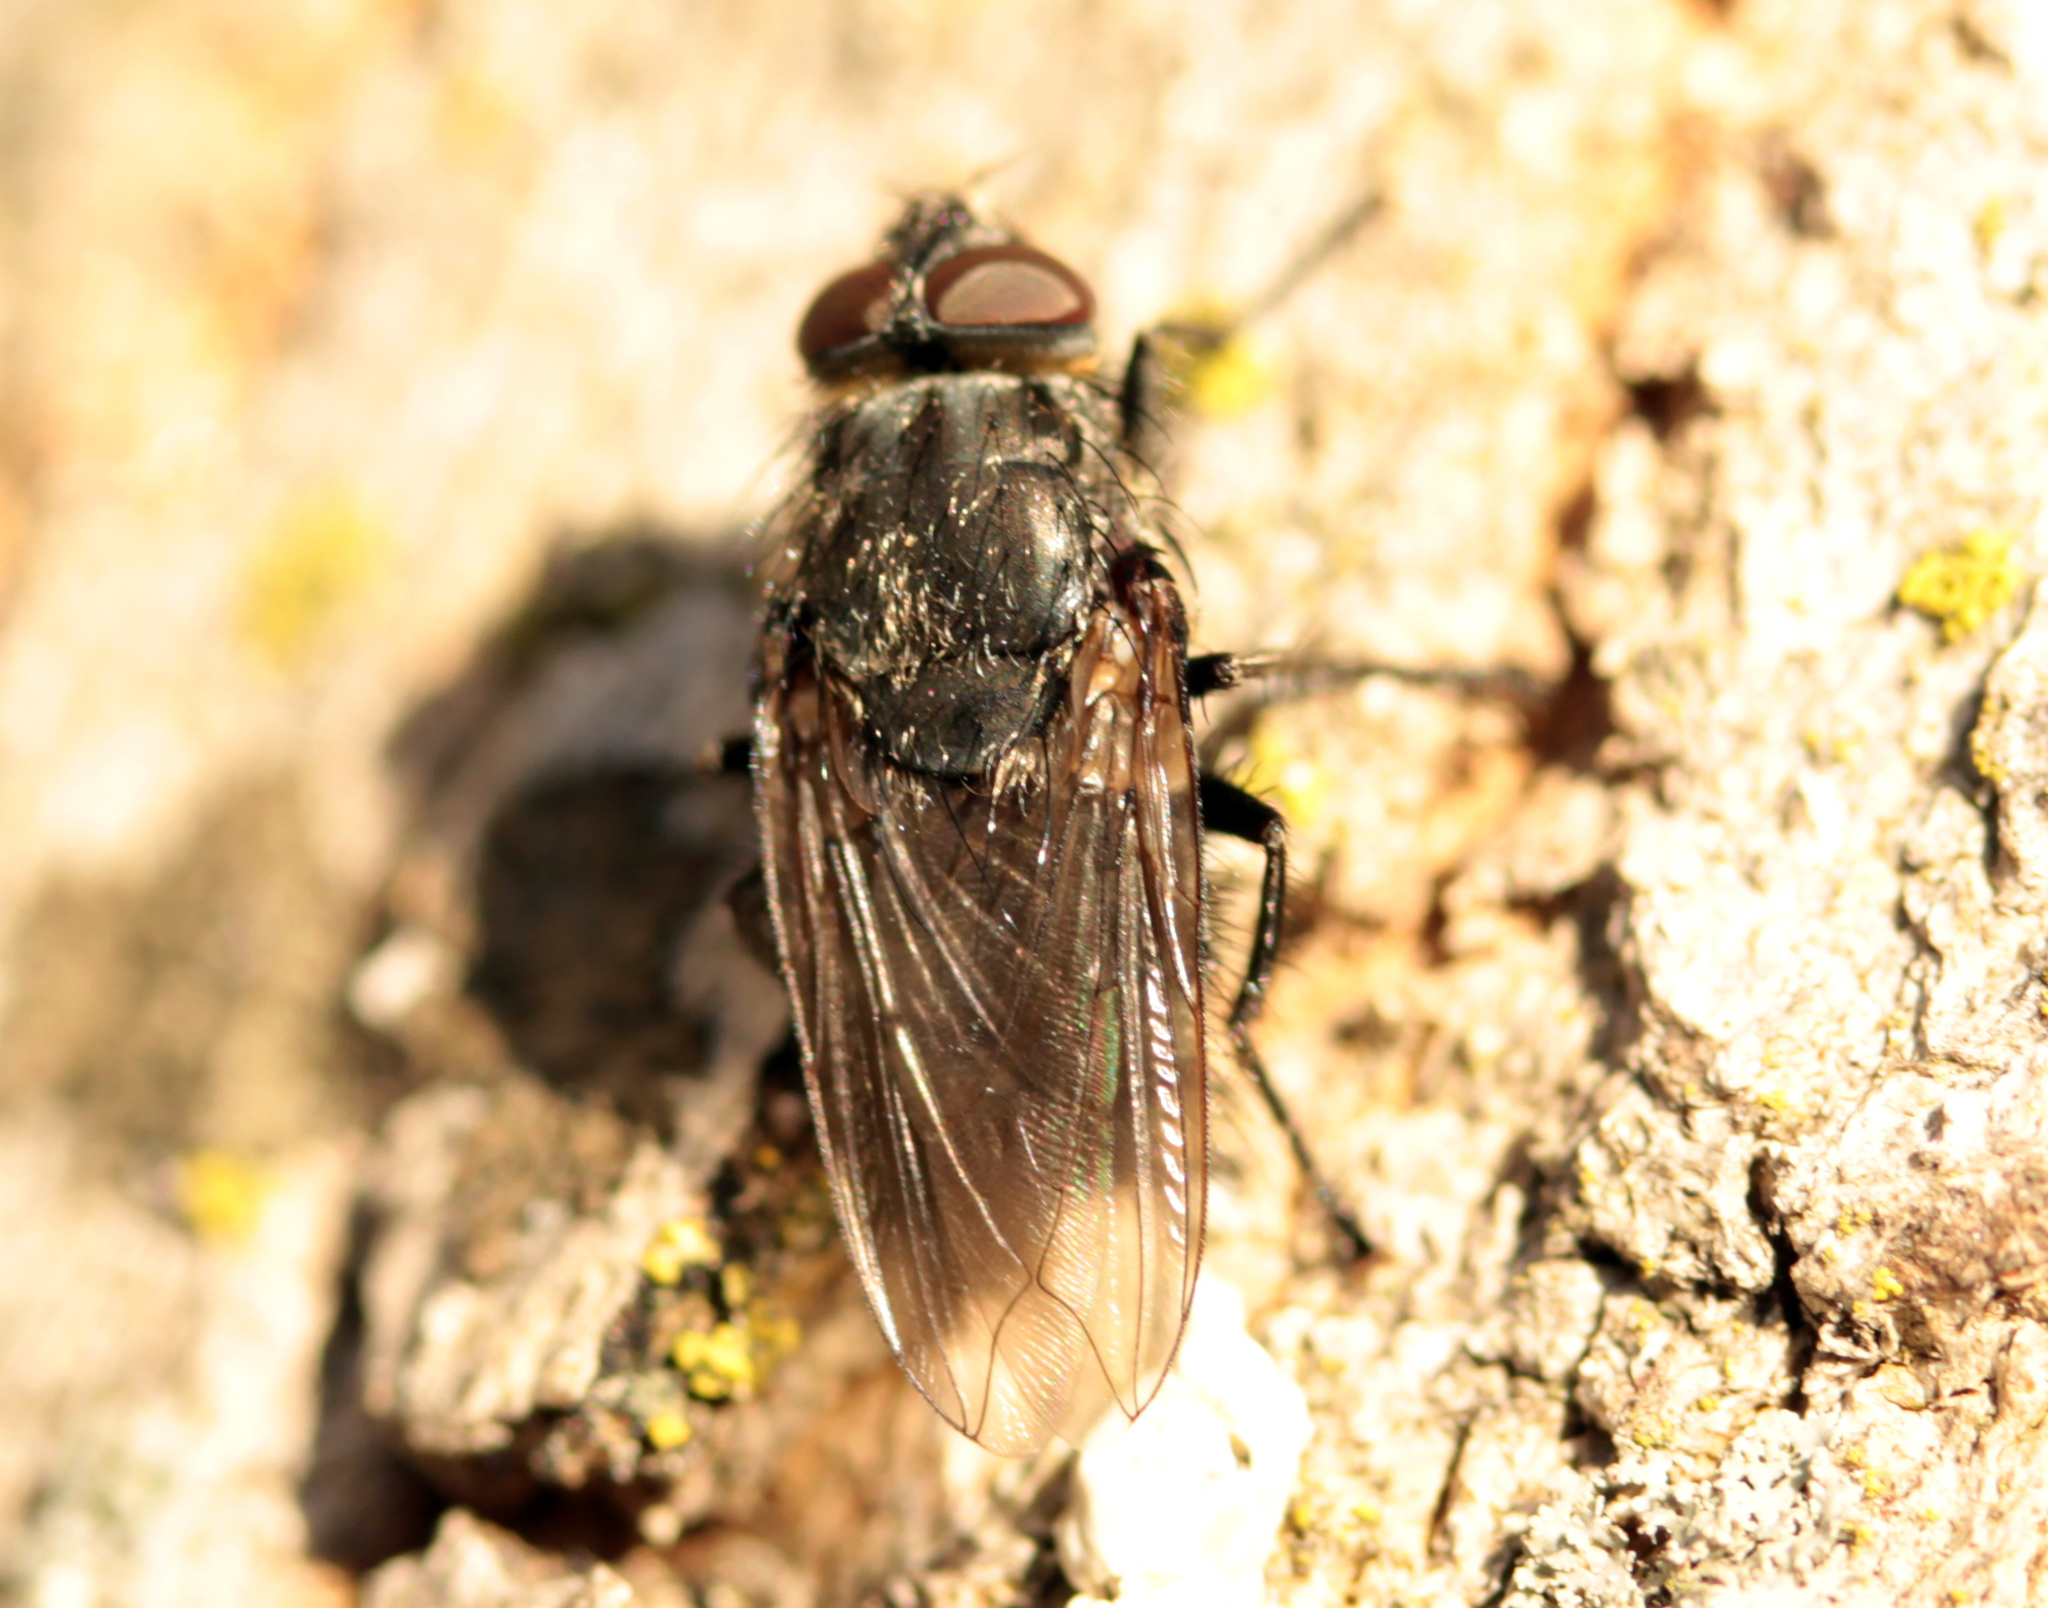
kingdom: Animalia
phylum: Arthropoda
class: Insecta
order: Diptera
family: Polleniidae
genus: Pollenia
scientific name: Pollenia vagabunda
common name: Vagabund cluster fly
